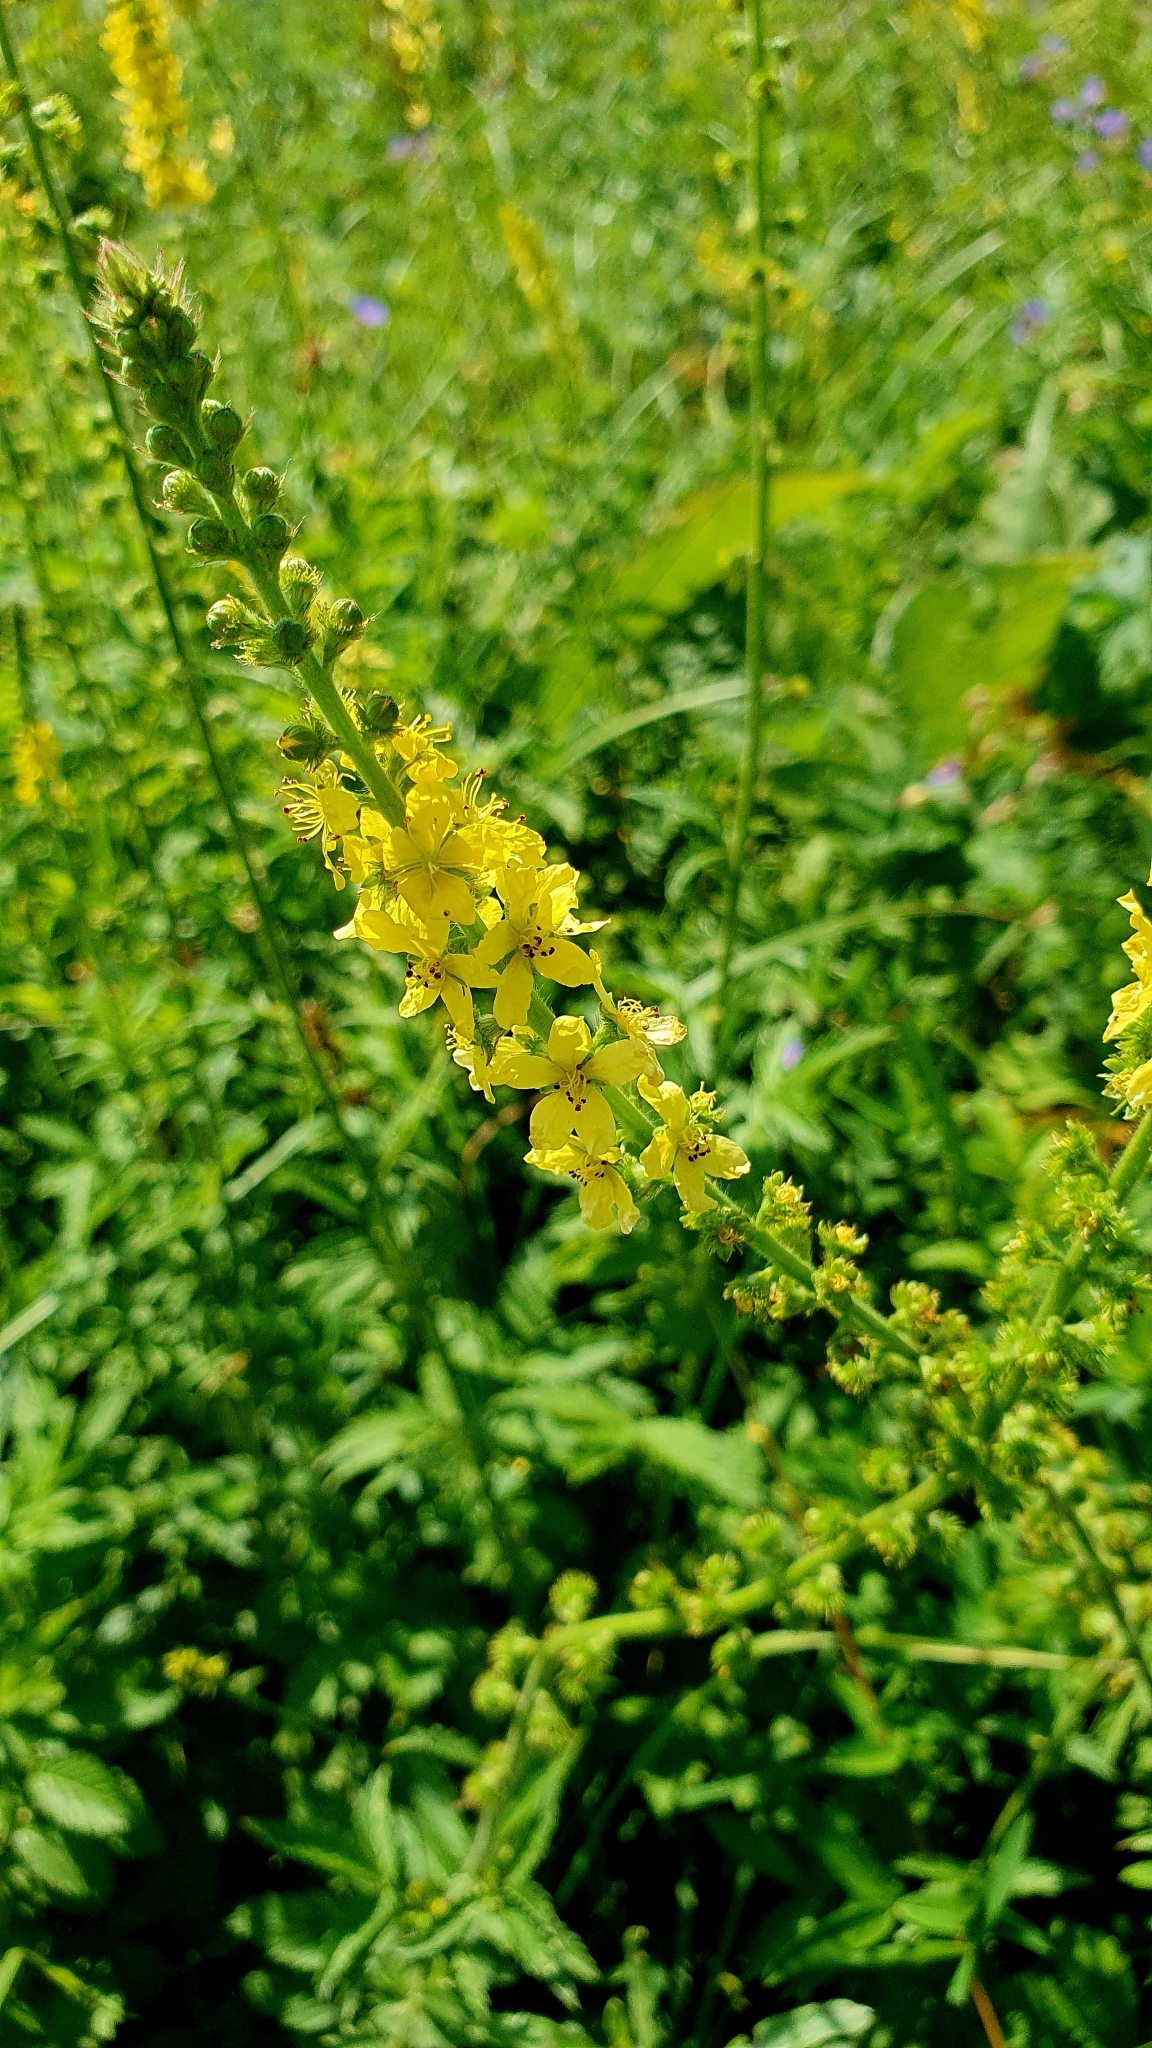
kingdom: Plantae
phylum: Tracheophyta
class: Magnoliopsida
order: Rosales
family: Rosaceae
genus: Agrimonia
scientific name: Agrimonia eupatoria
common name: Agrimony
